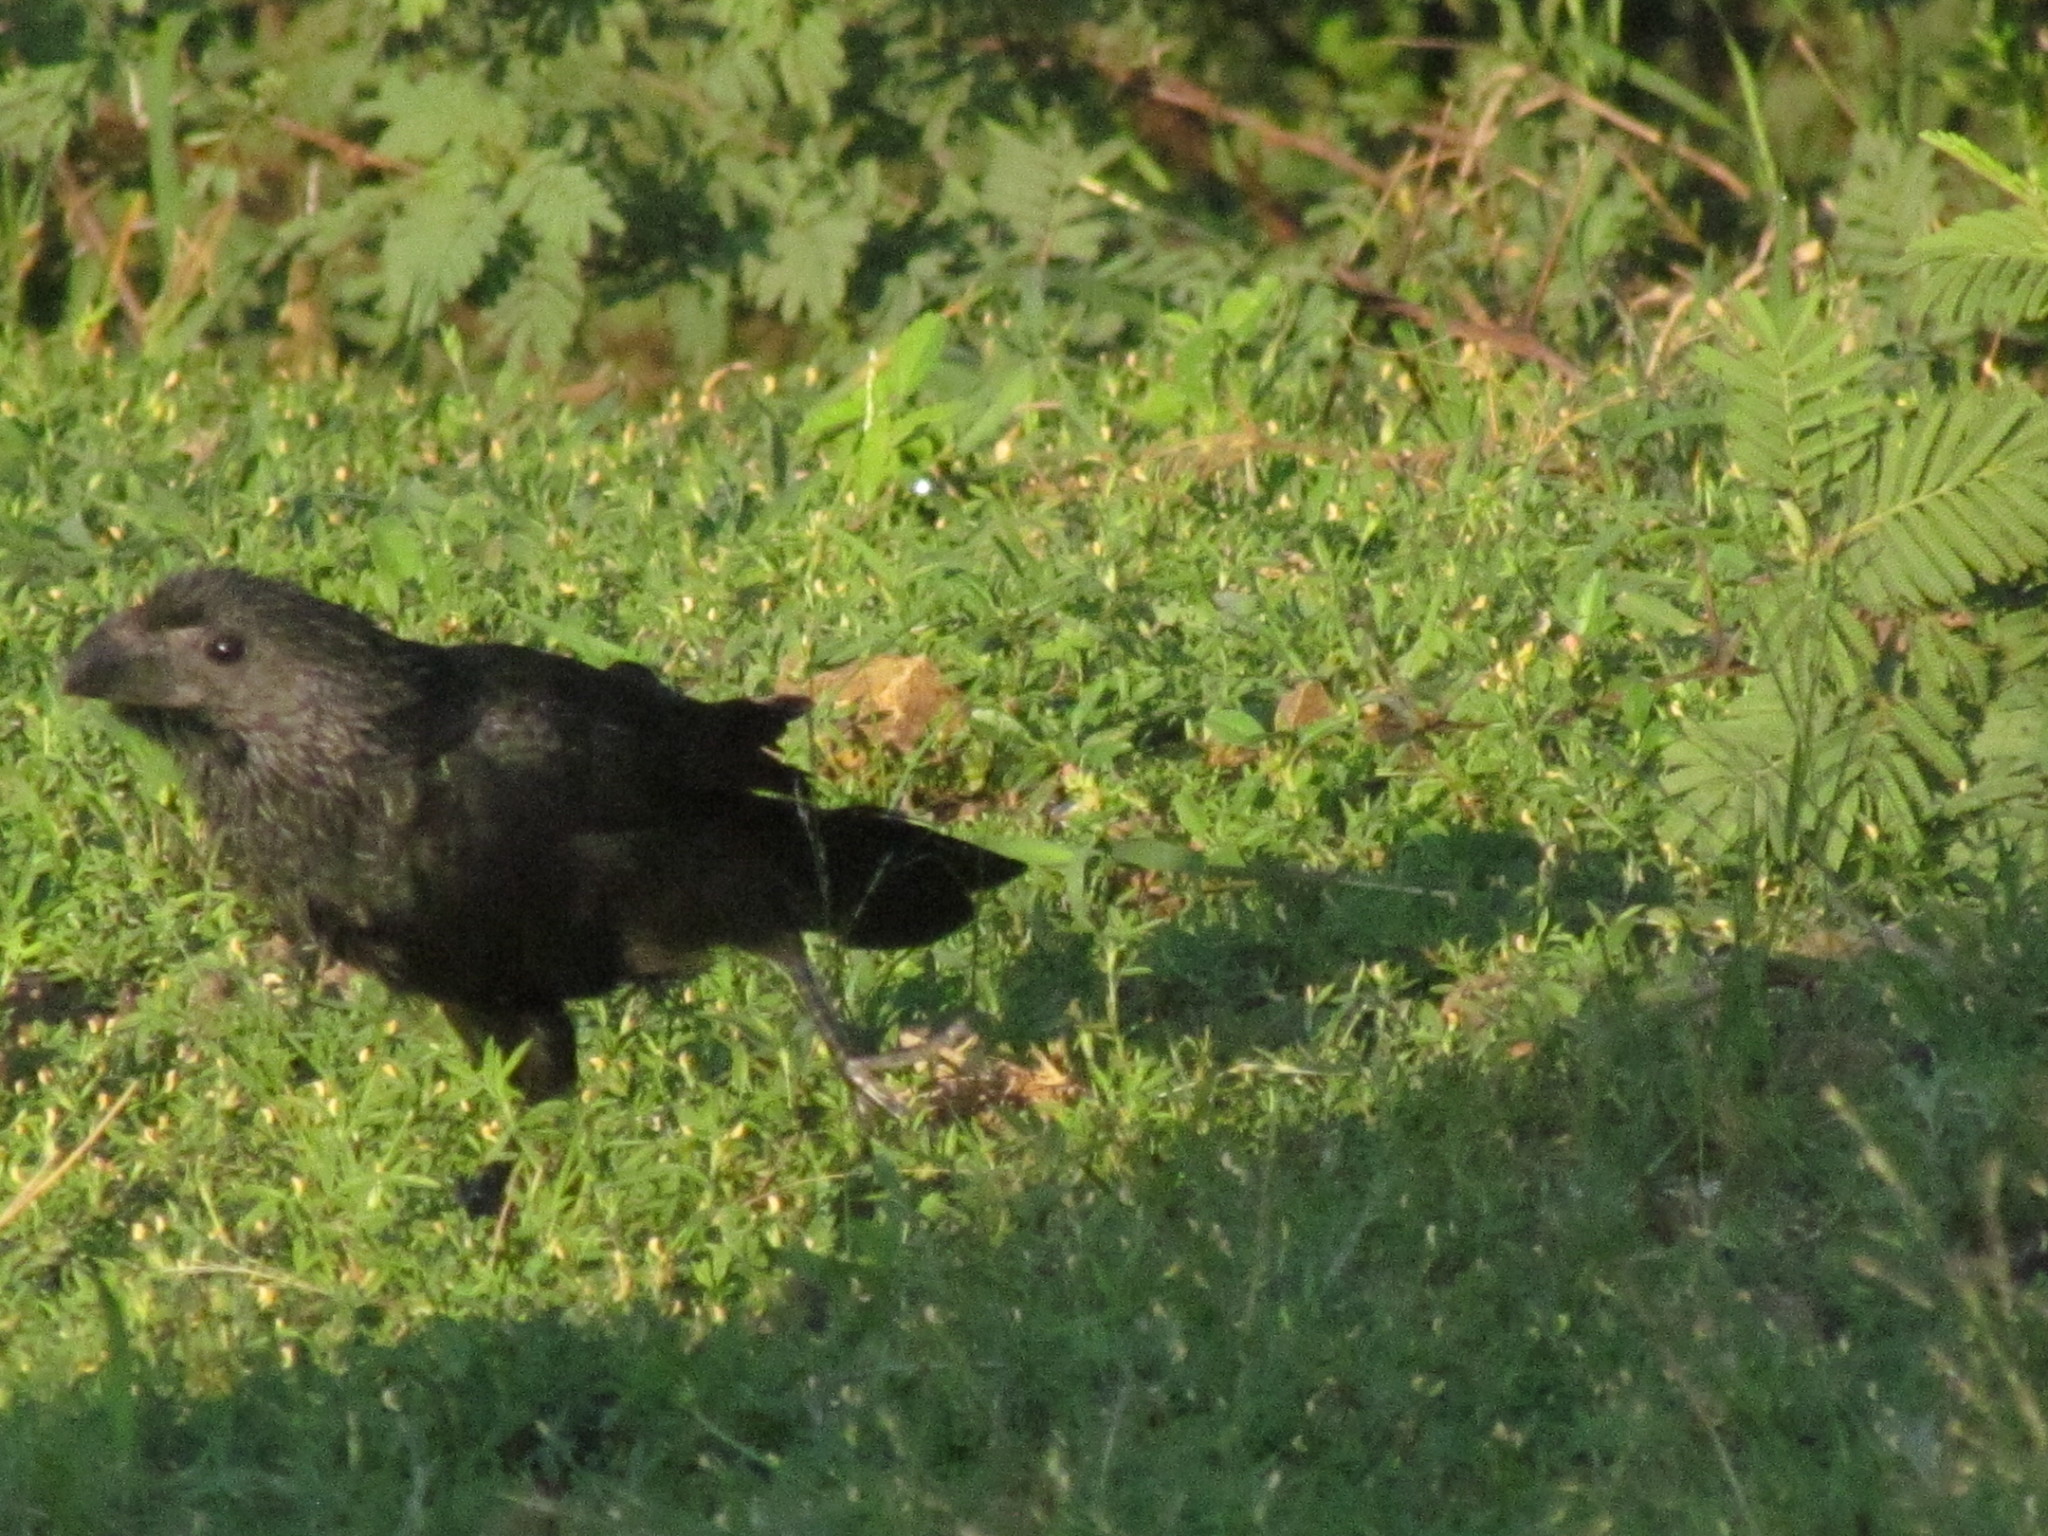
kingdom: Animalia
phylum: Chordata
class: Aves
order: Cuculiformes
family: Cuculidae
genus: Crotophaga
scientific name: Crotophaga sulcirostris
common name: Groove-billed ani
